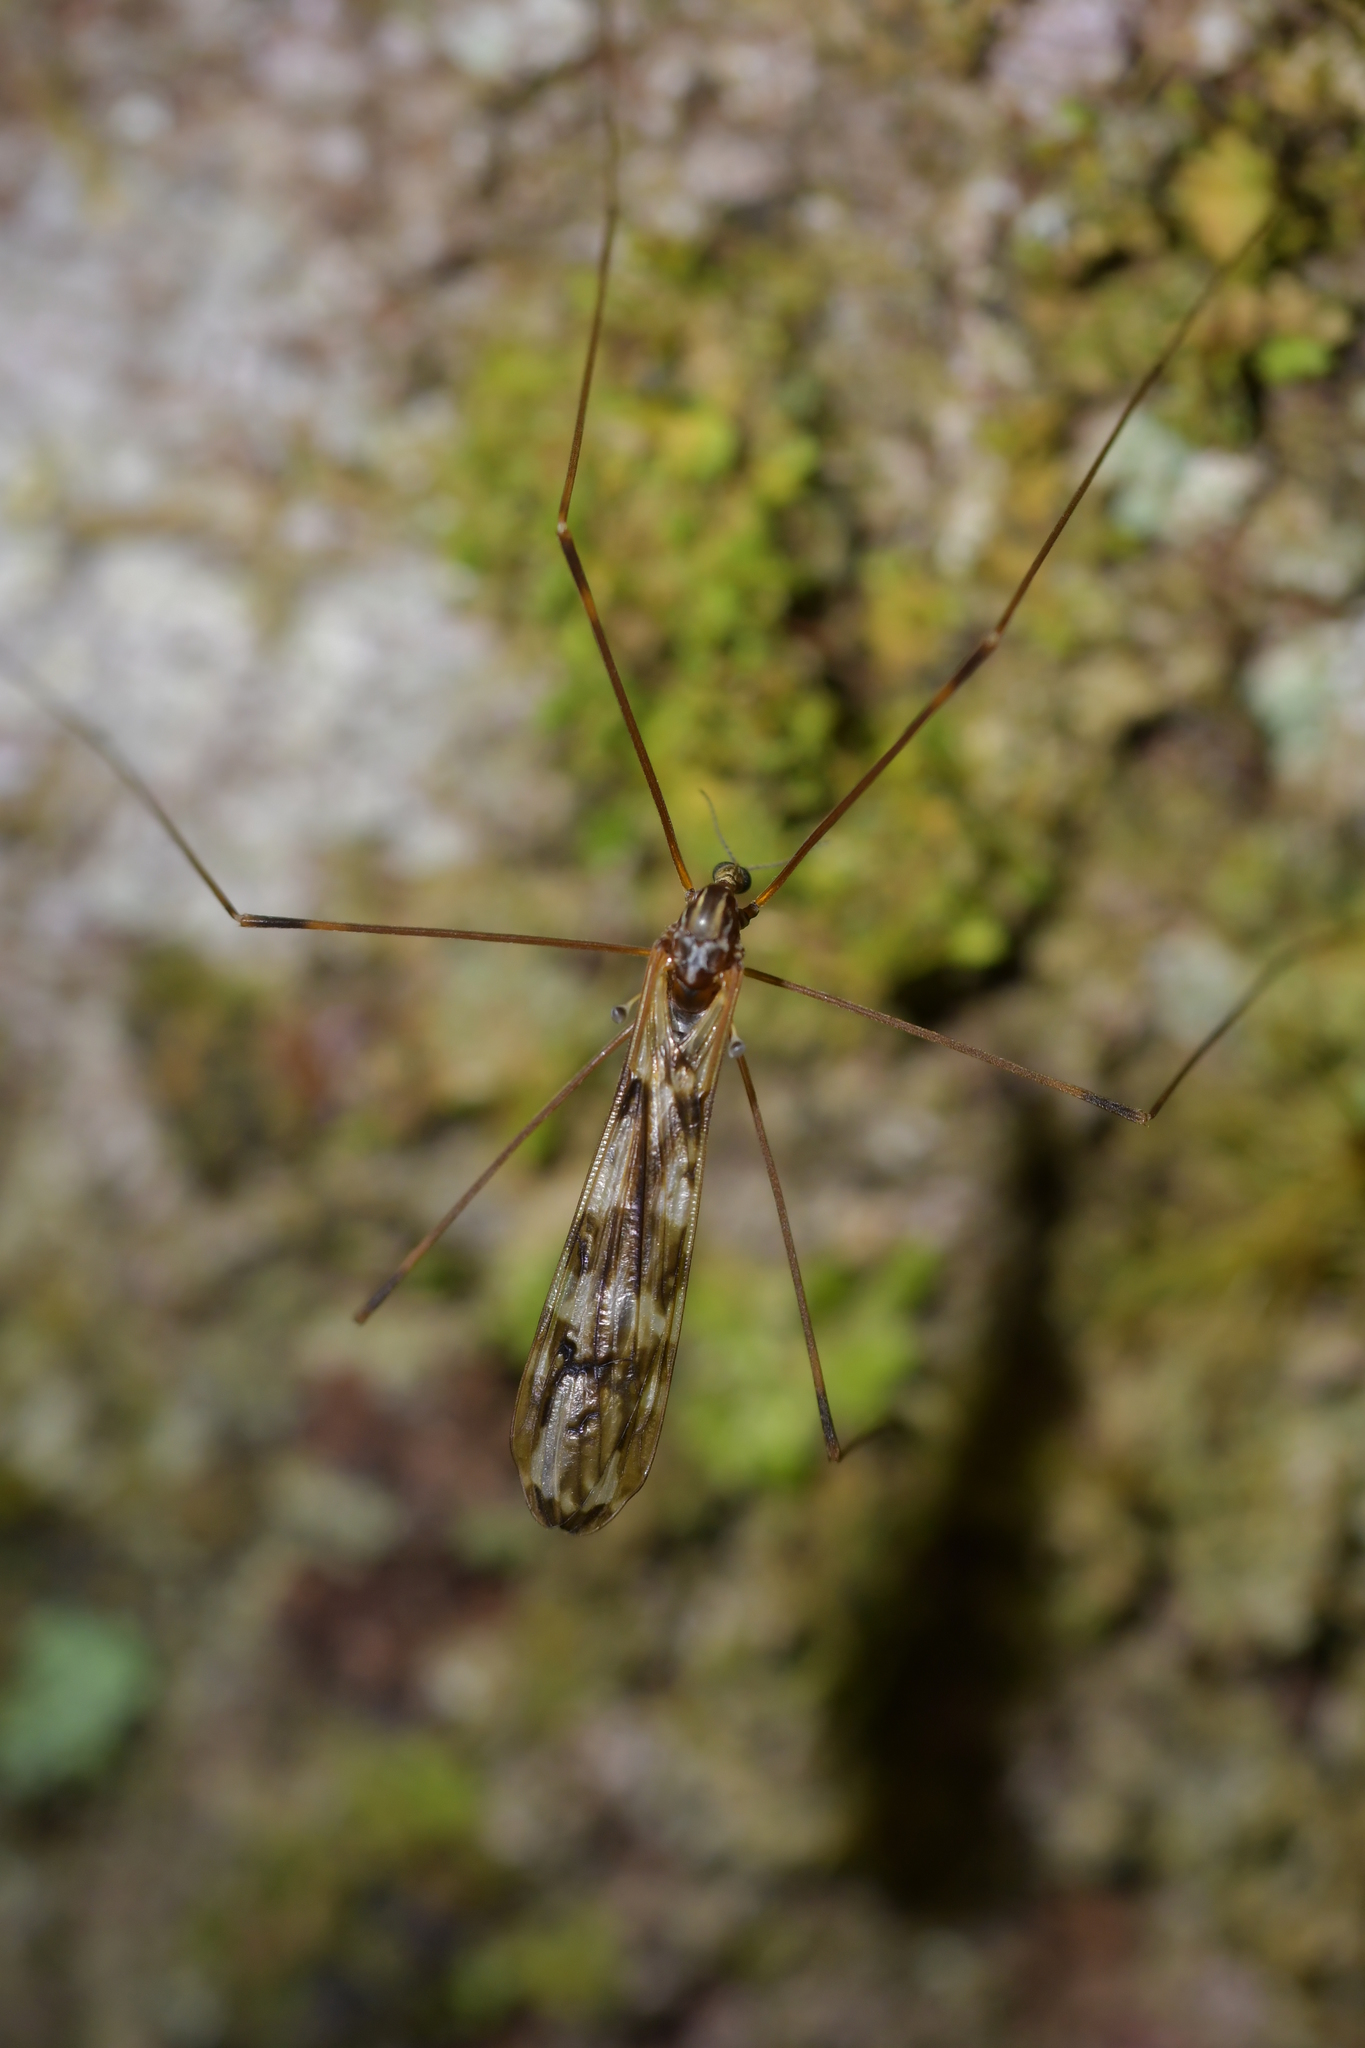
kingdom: Animalia
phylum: Arthropoda
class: Insecta
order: Diptera
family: Limoniidae
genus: Discobola
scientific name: Discobola dohrni
